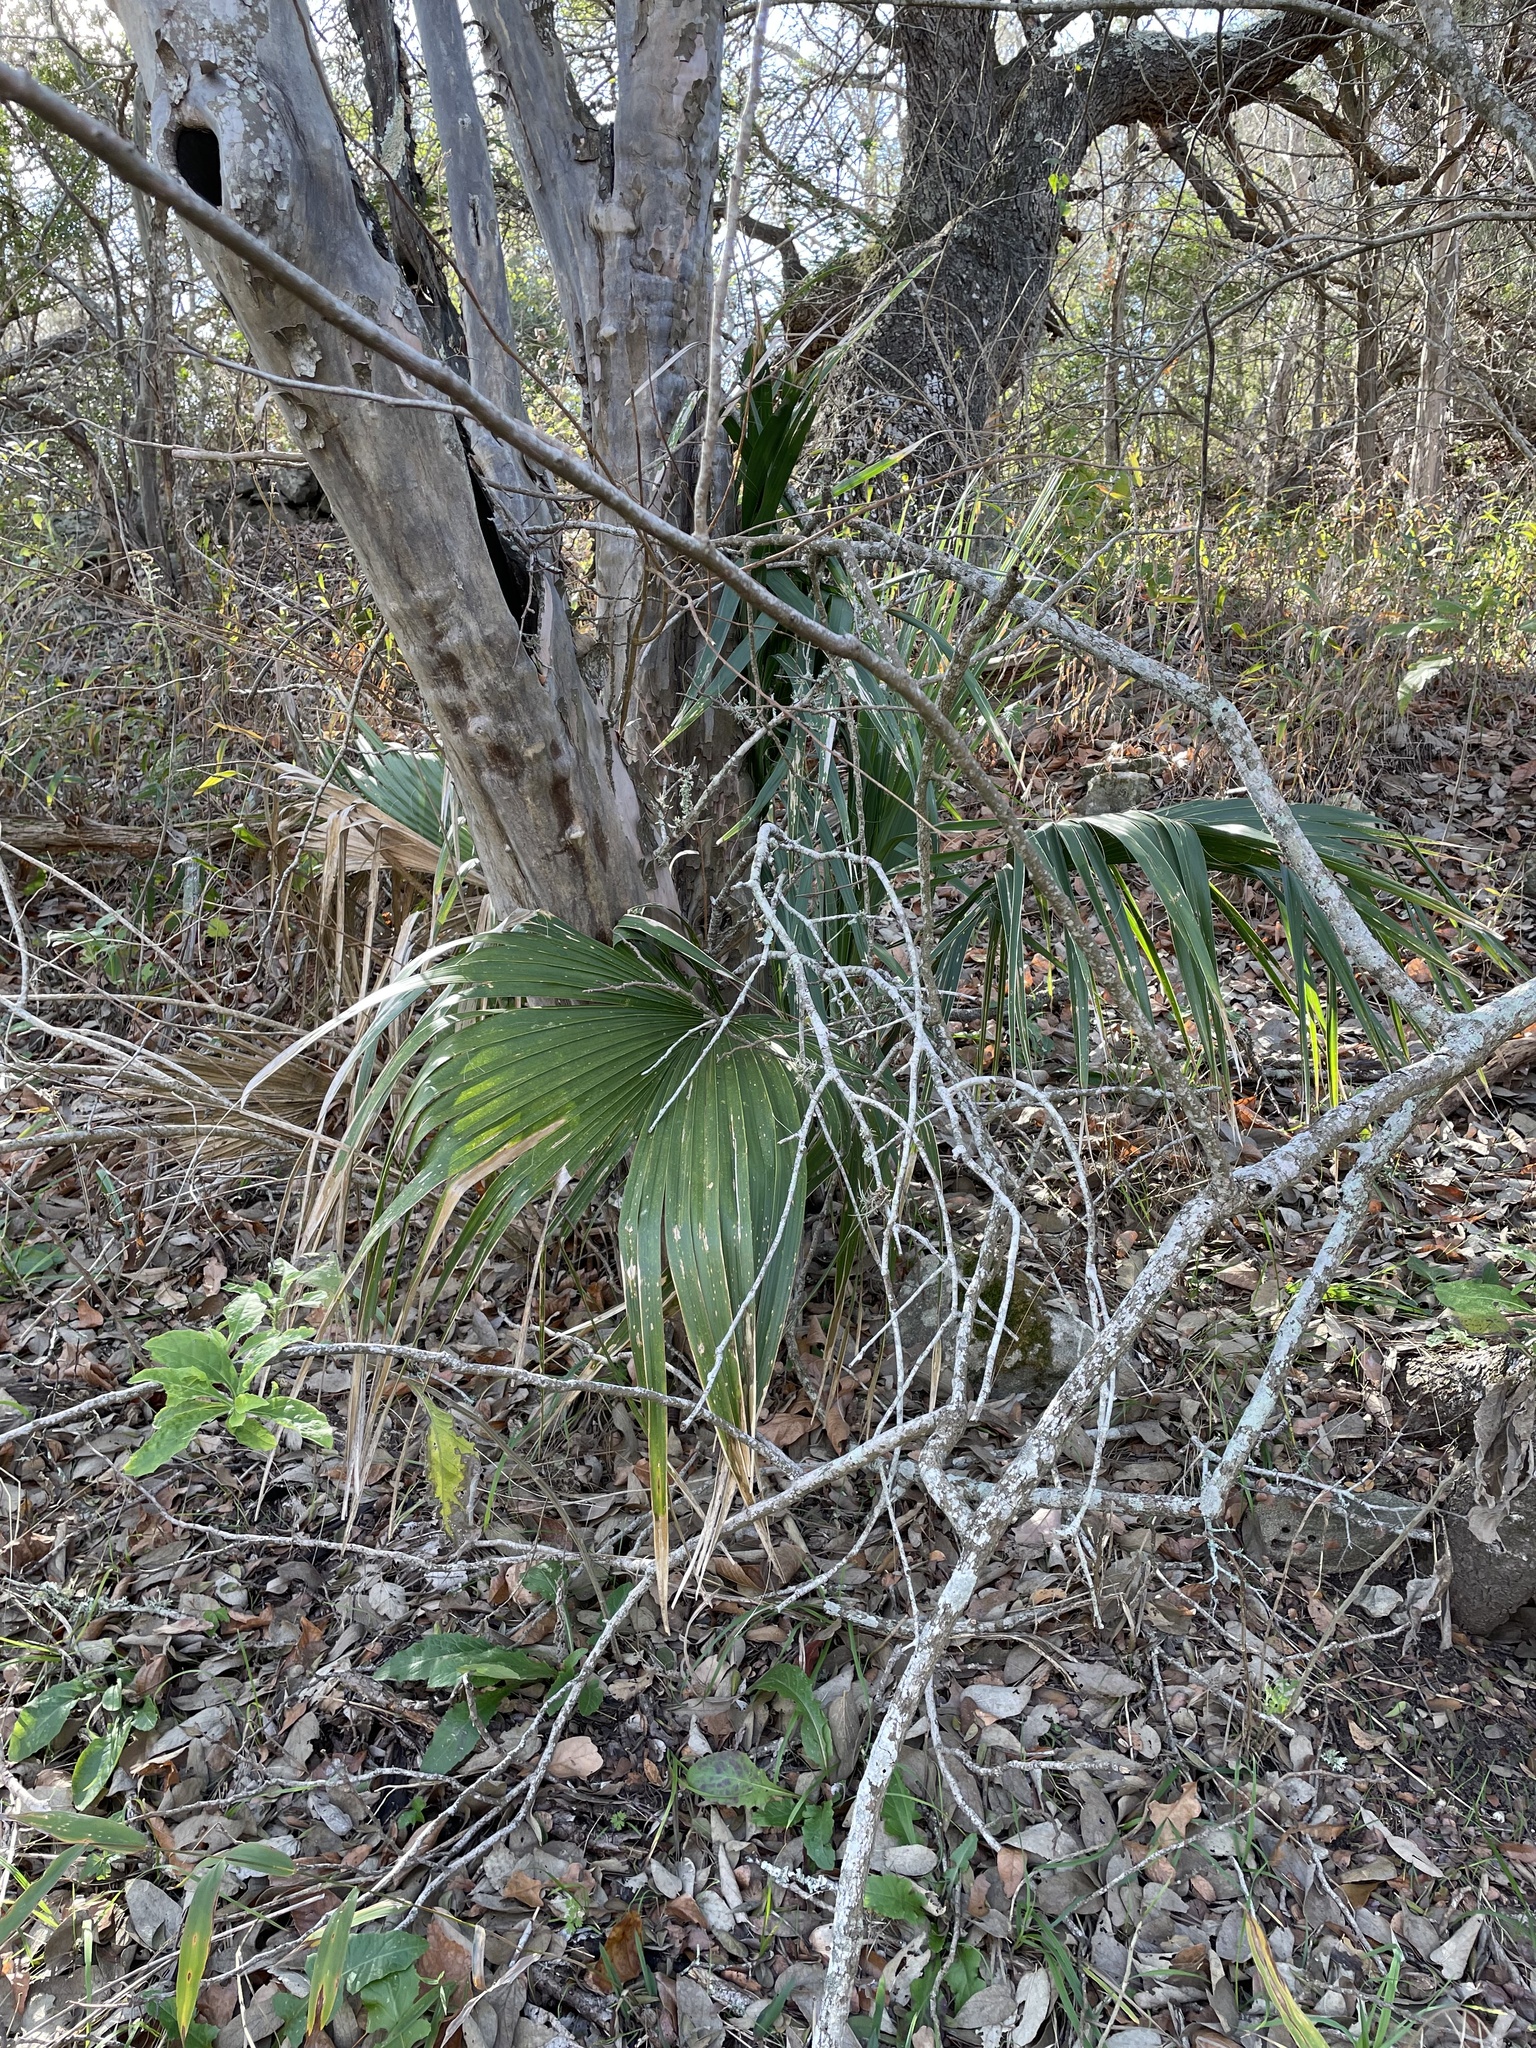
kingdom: Plantae
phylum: Tracheophyta
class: Liliopsida
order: Arecales
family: Arecaceae
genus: Sabal
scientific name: Sabal minor
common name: Dwarf palmetto
